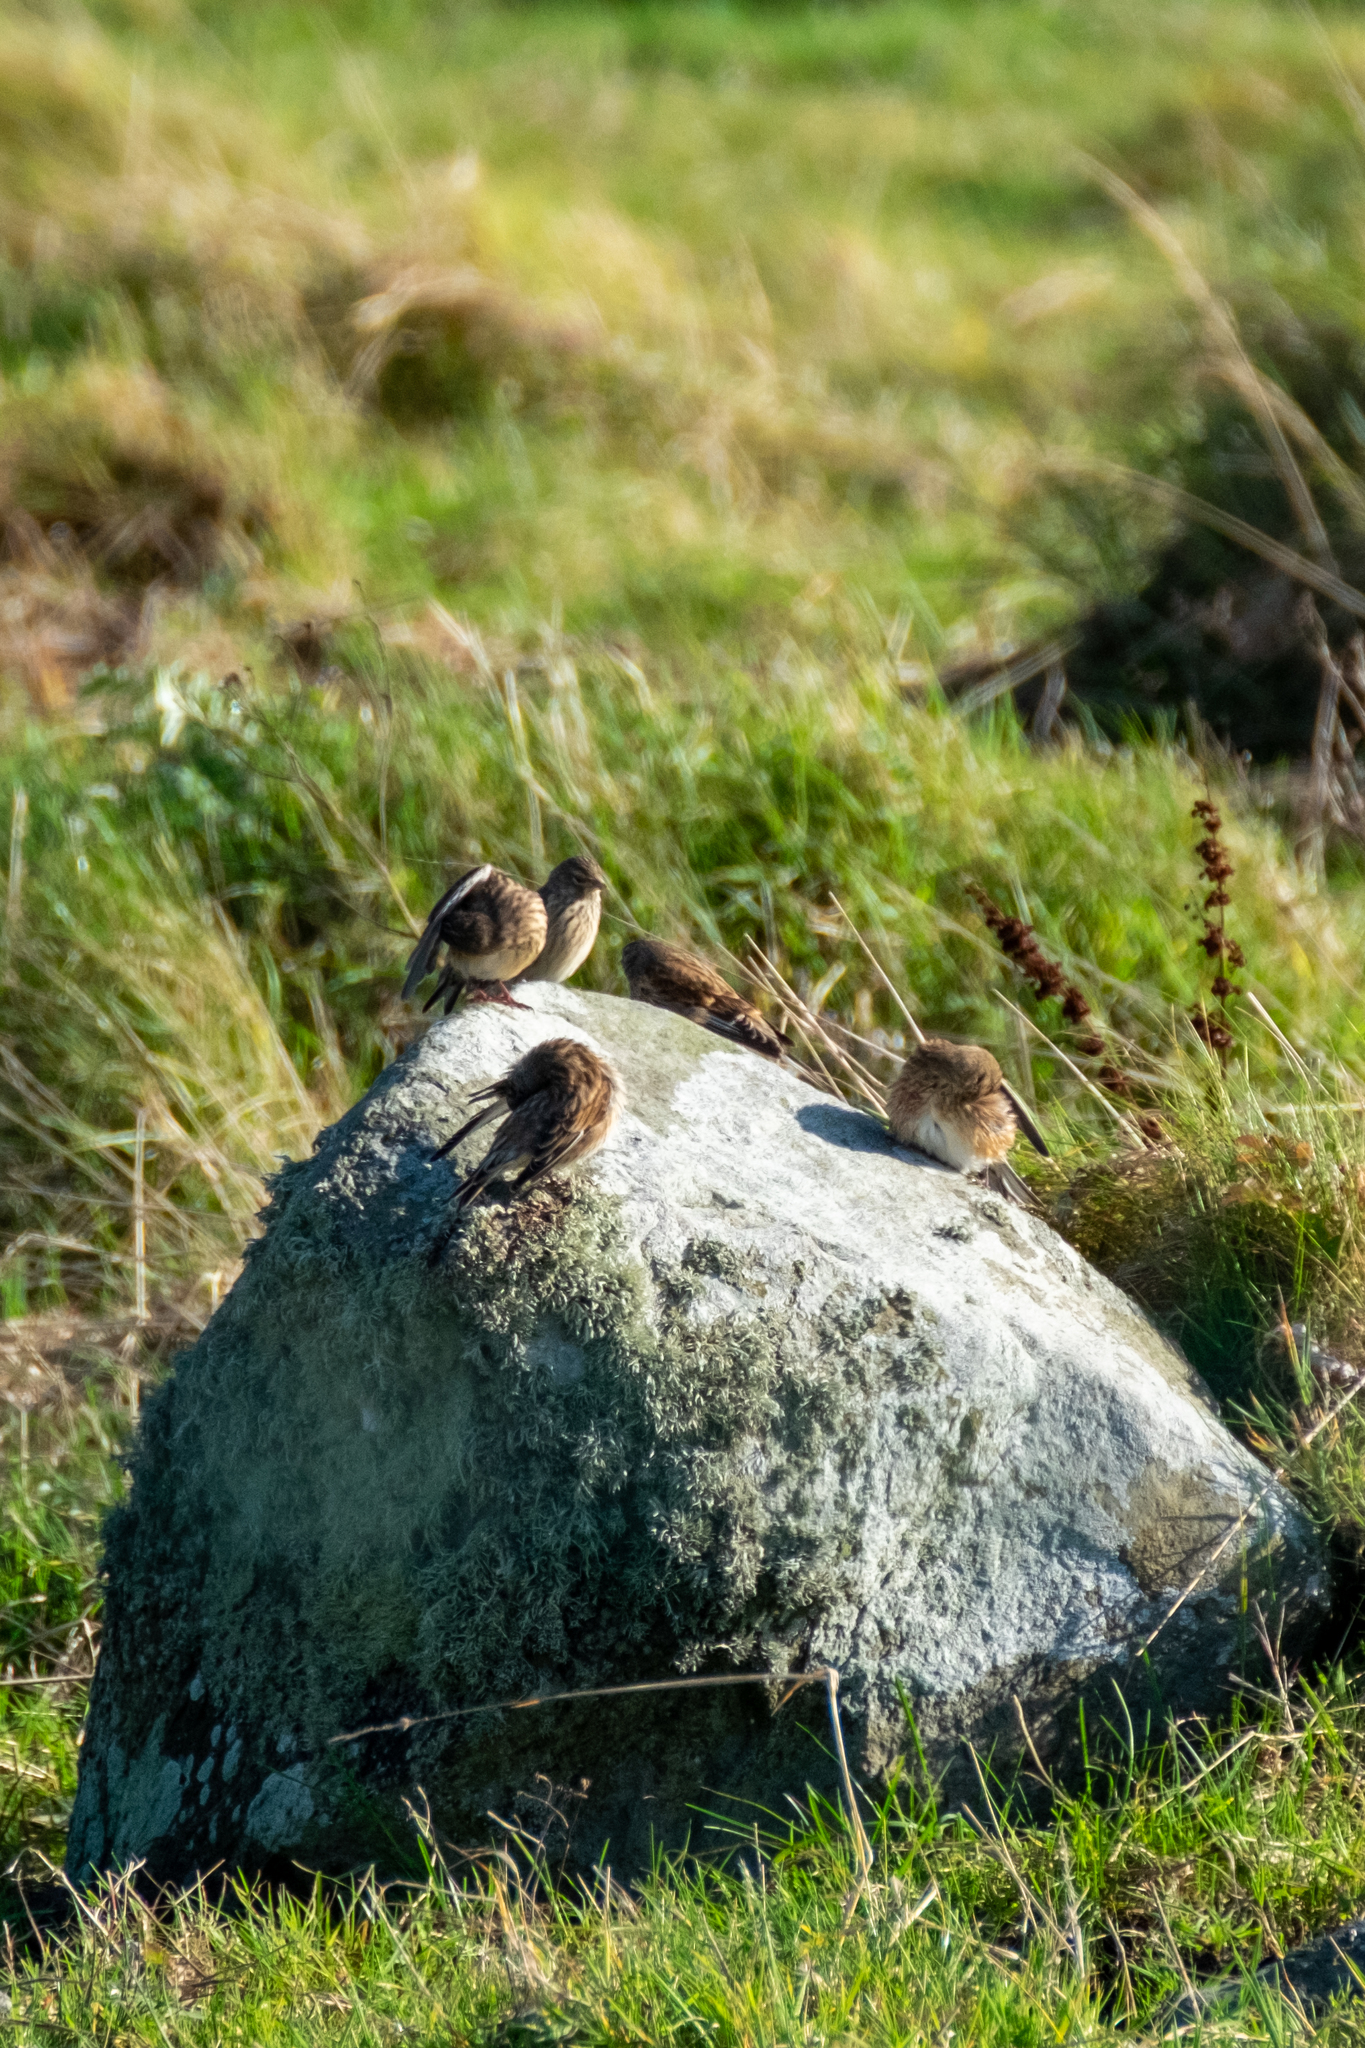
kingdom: Animalia
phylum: Chordata
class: Aves
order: Passeriformes
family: Fringillidae
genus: Linaria
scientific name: Linaria cannabina
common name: Common linnet
